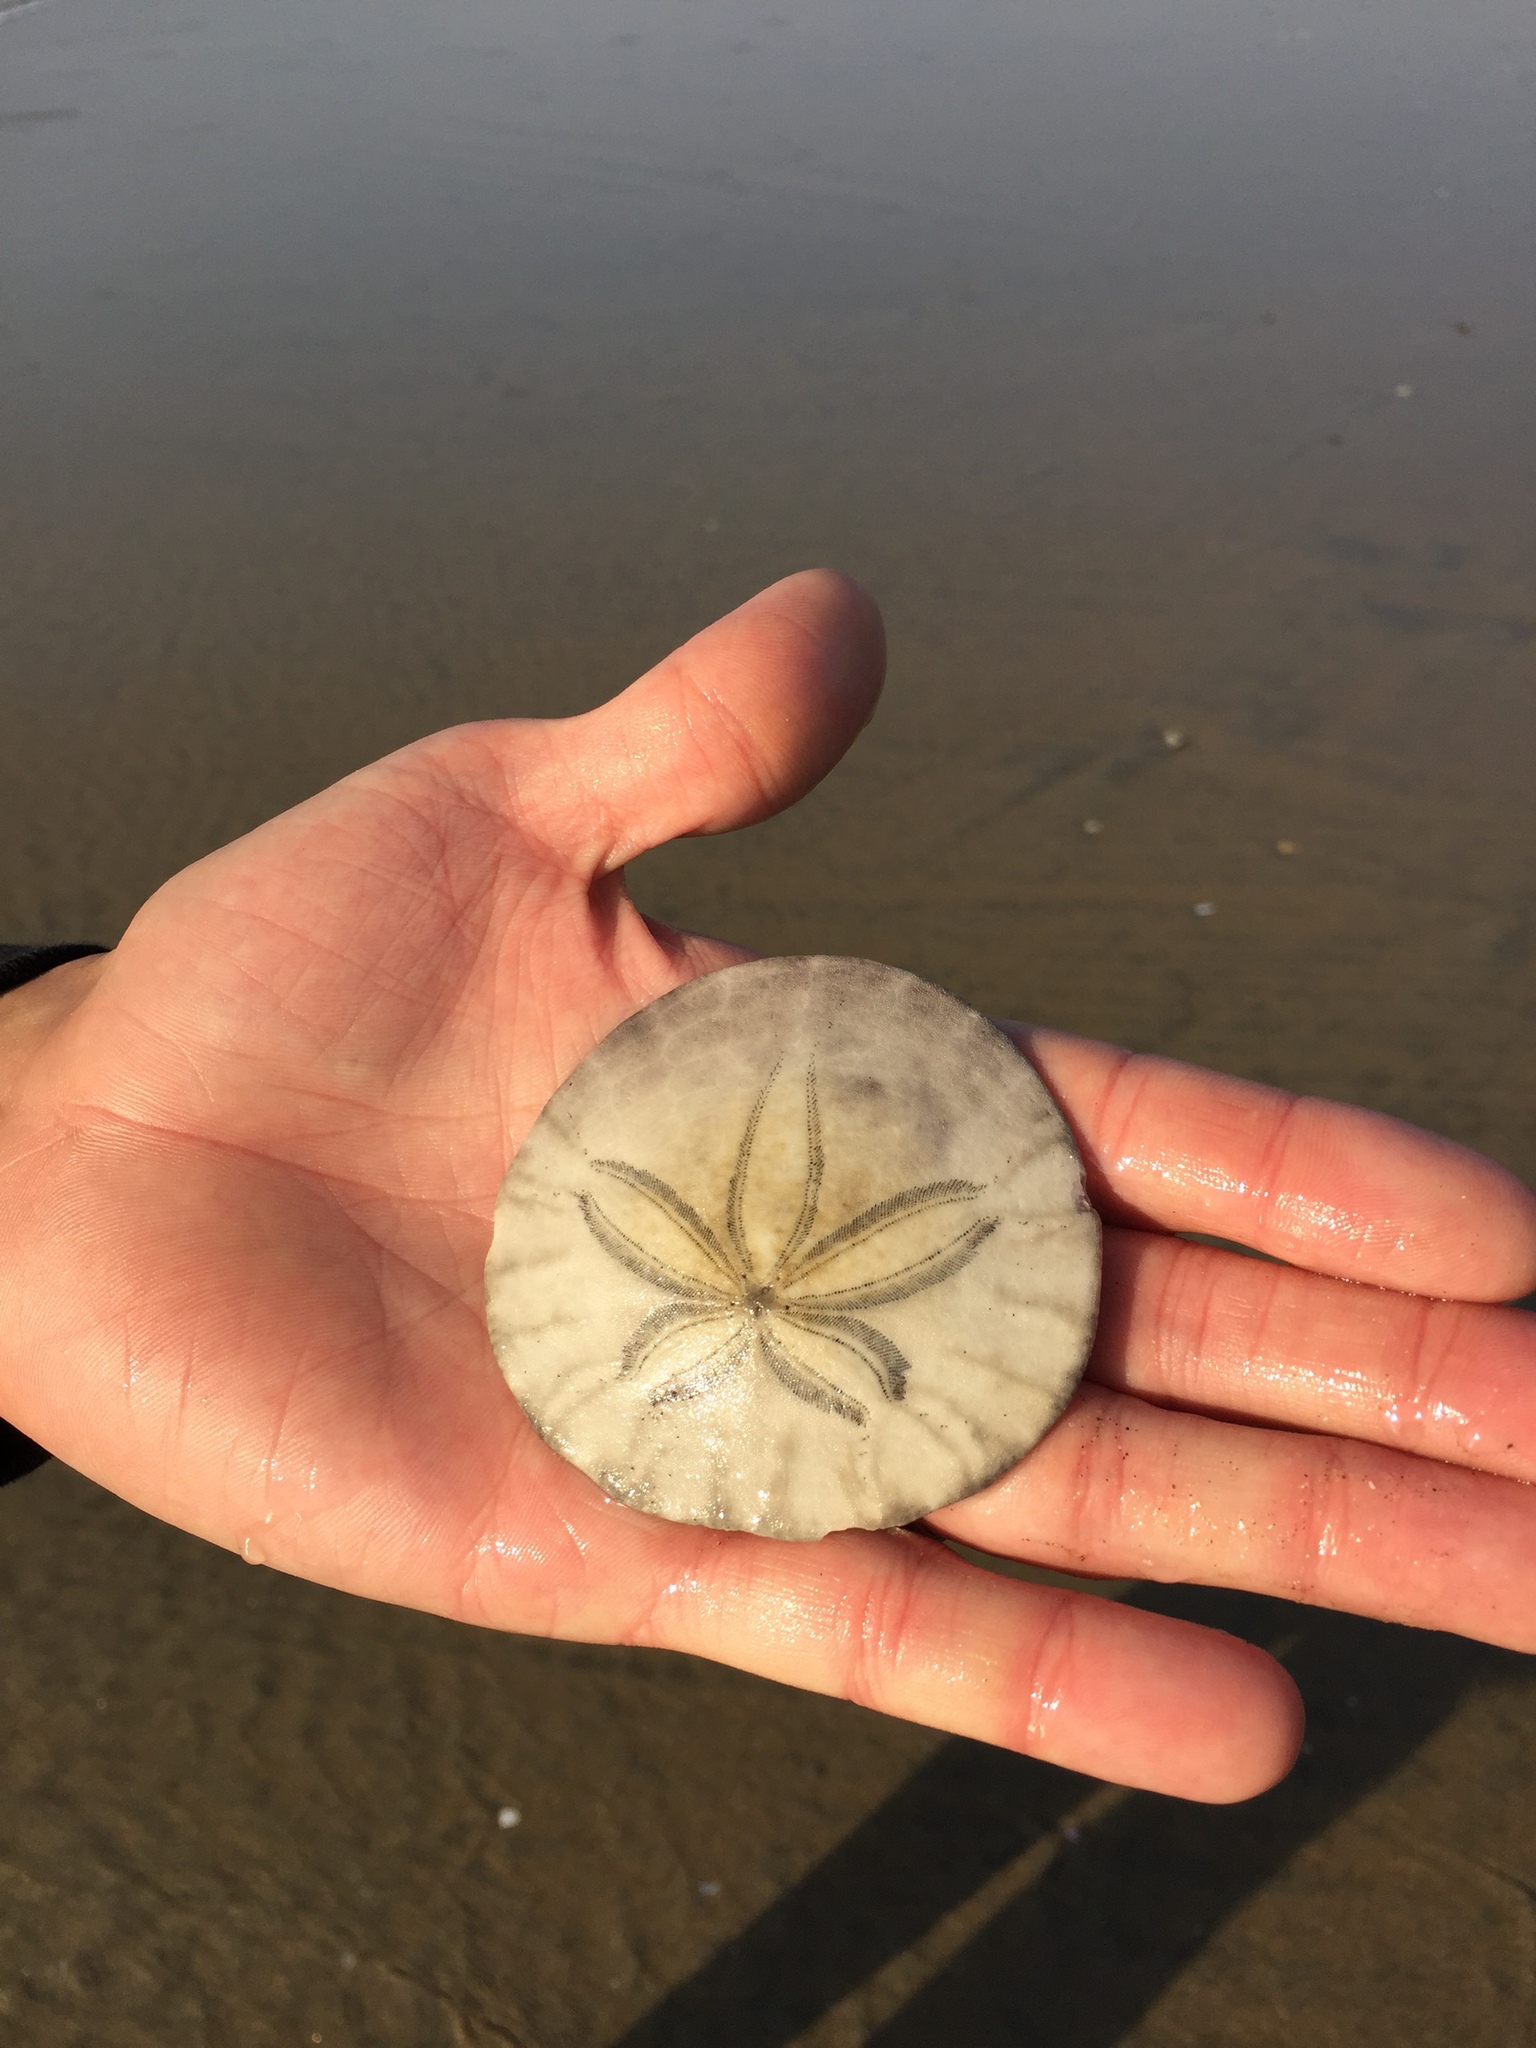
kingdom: Animalia
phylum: Echinodermata
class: Echinoidea
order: Echinolampadacea
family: Dendrasteridae
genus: Dendraster
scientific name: Dendraster excentricus
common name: Eccentric sand dollar sea urchin
